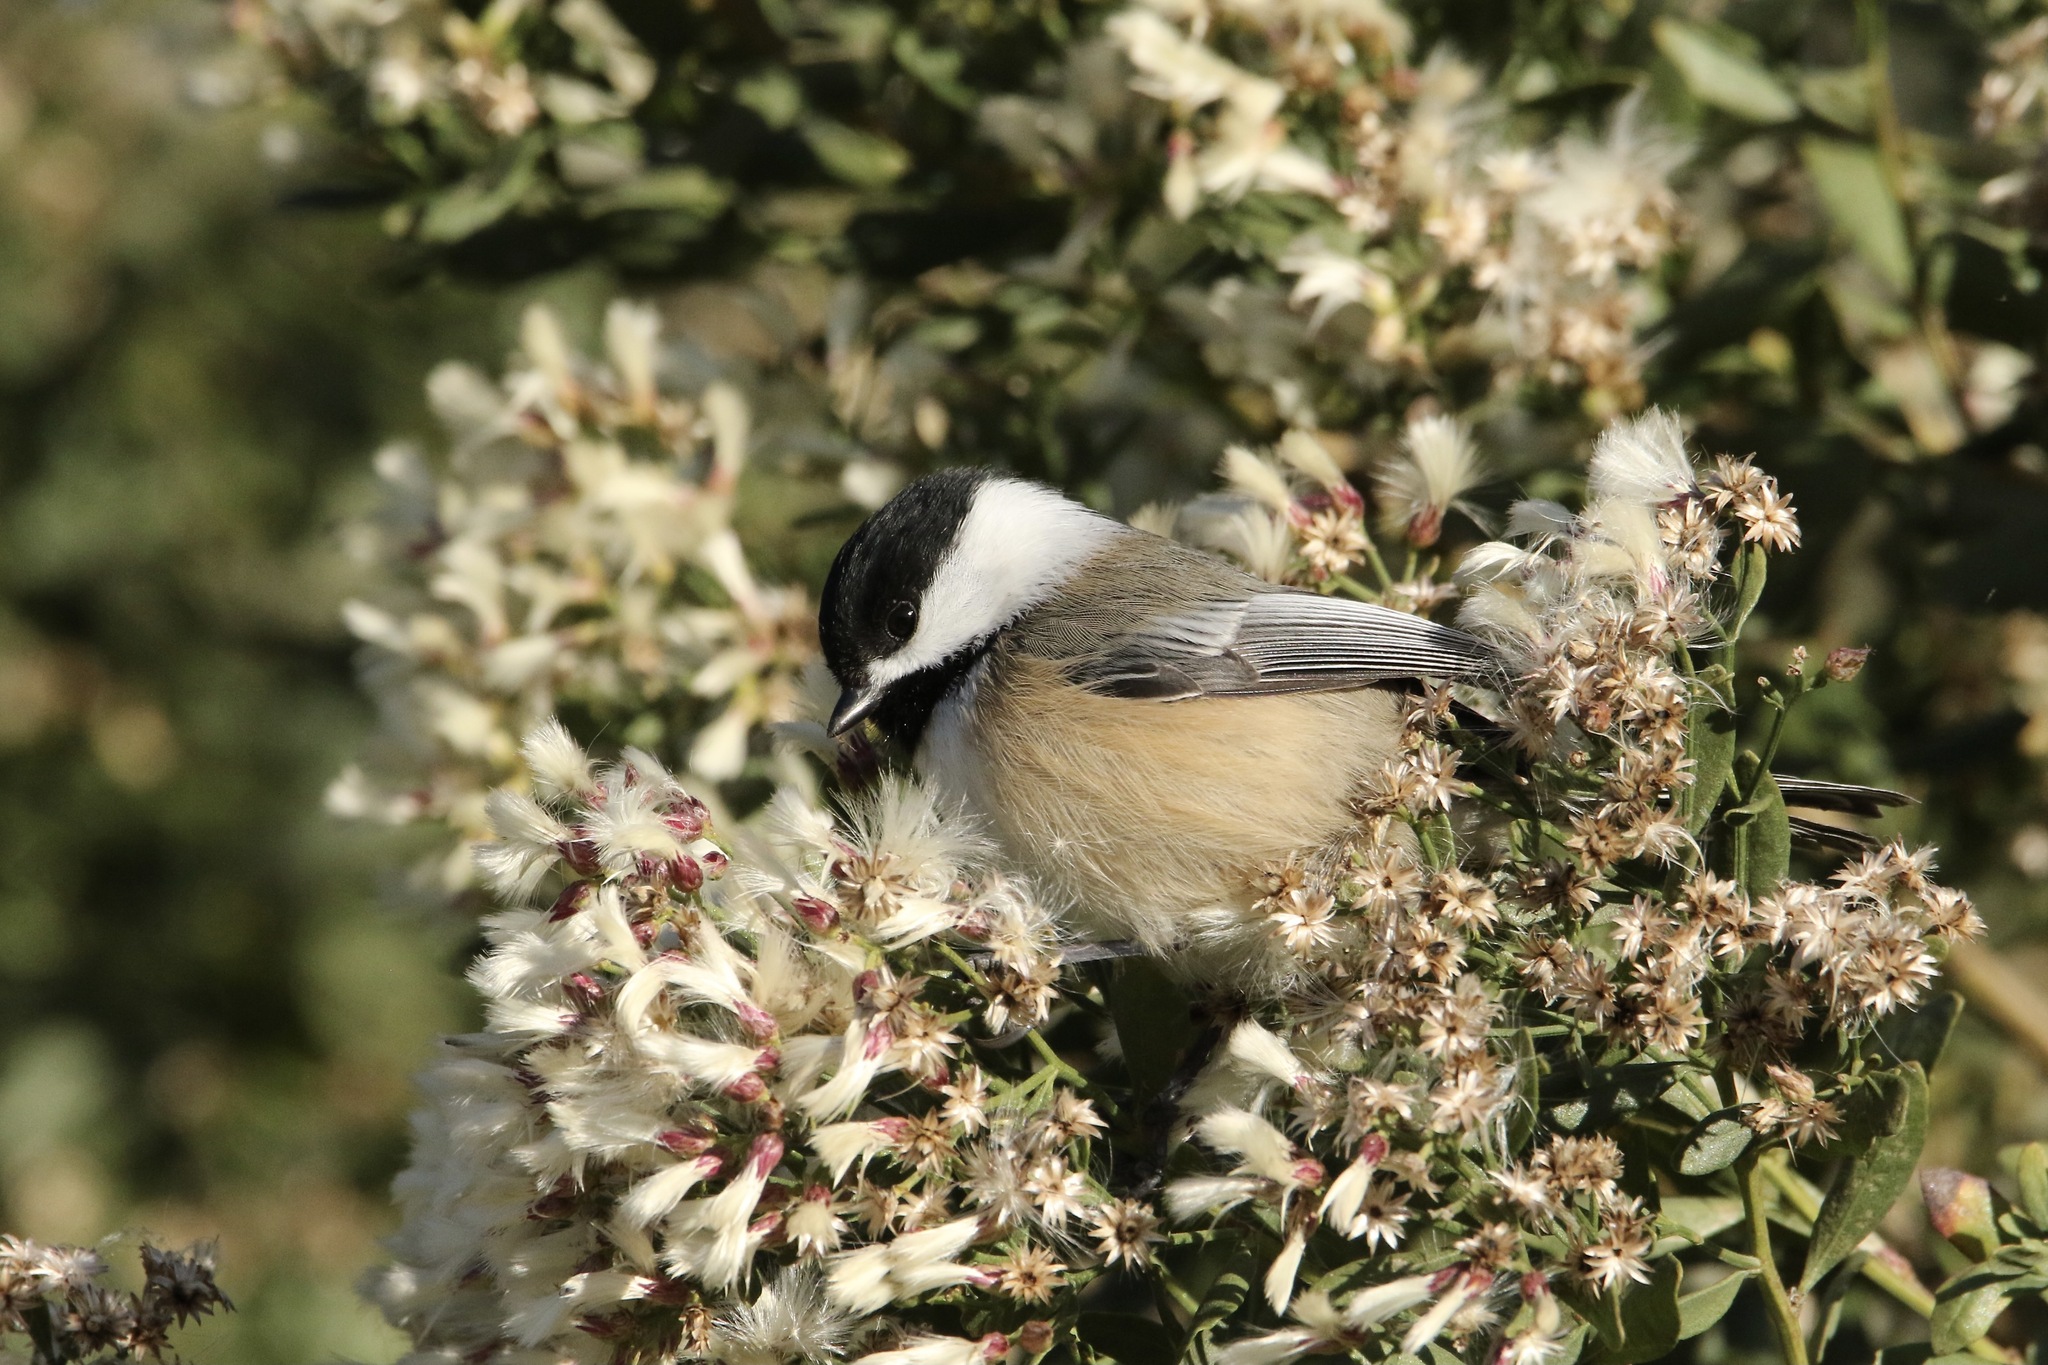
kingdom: Animalia
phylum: Chordata
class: Aves
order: Passeriformes
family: Paridae
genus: Poecile
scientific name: Poecile atricapillus
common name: Black-capped chickadee
